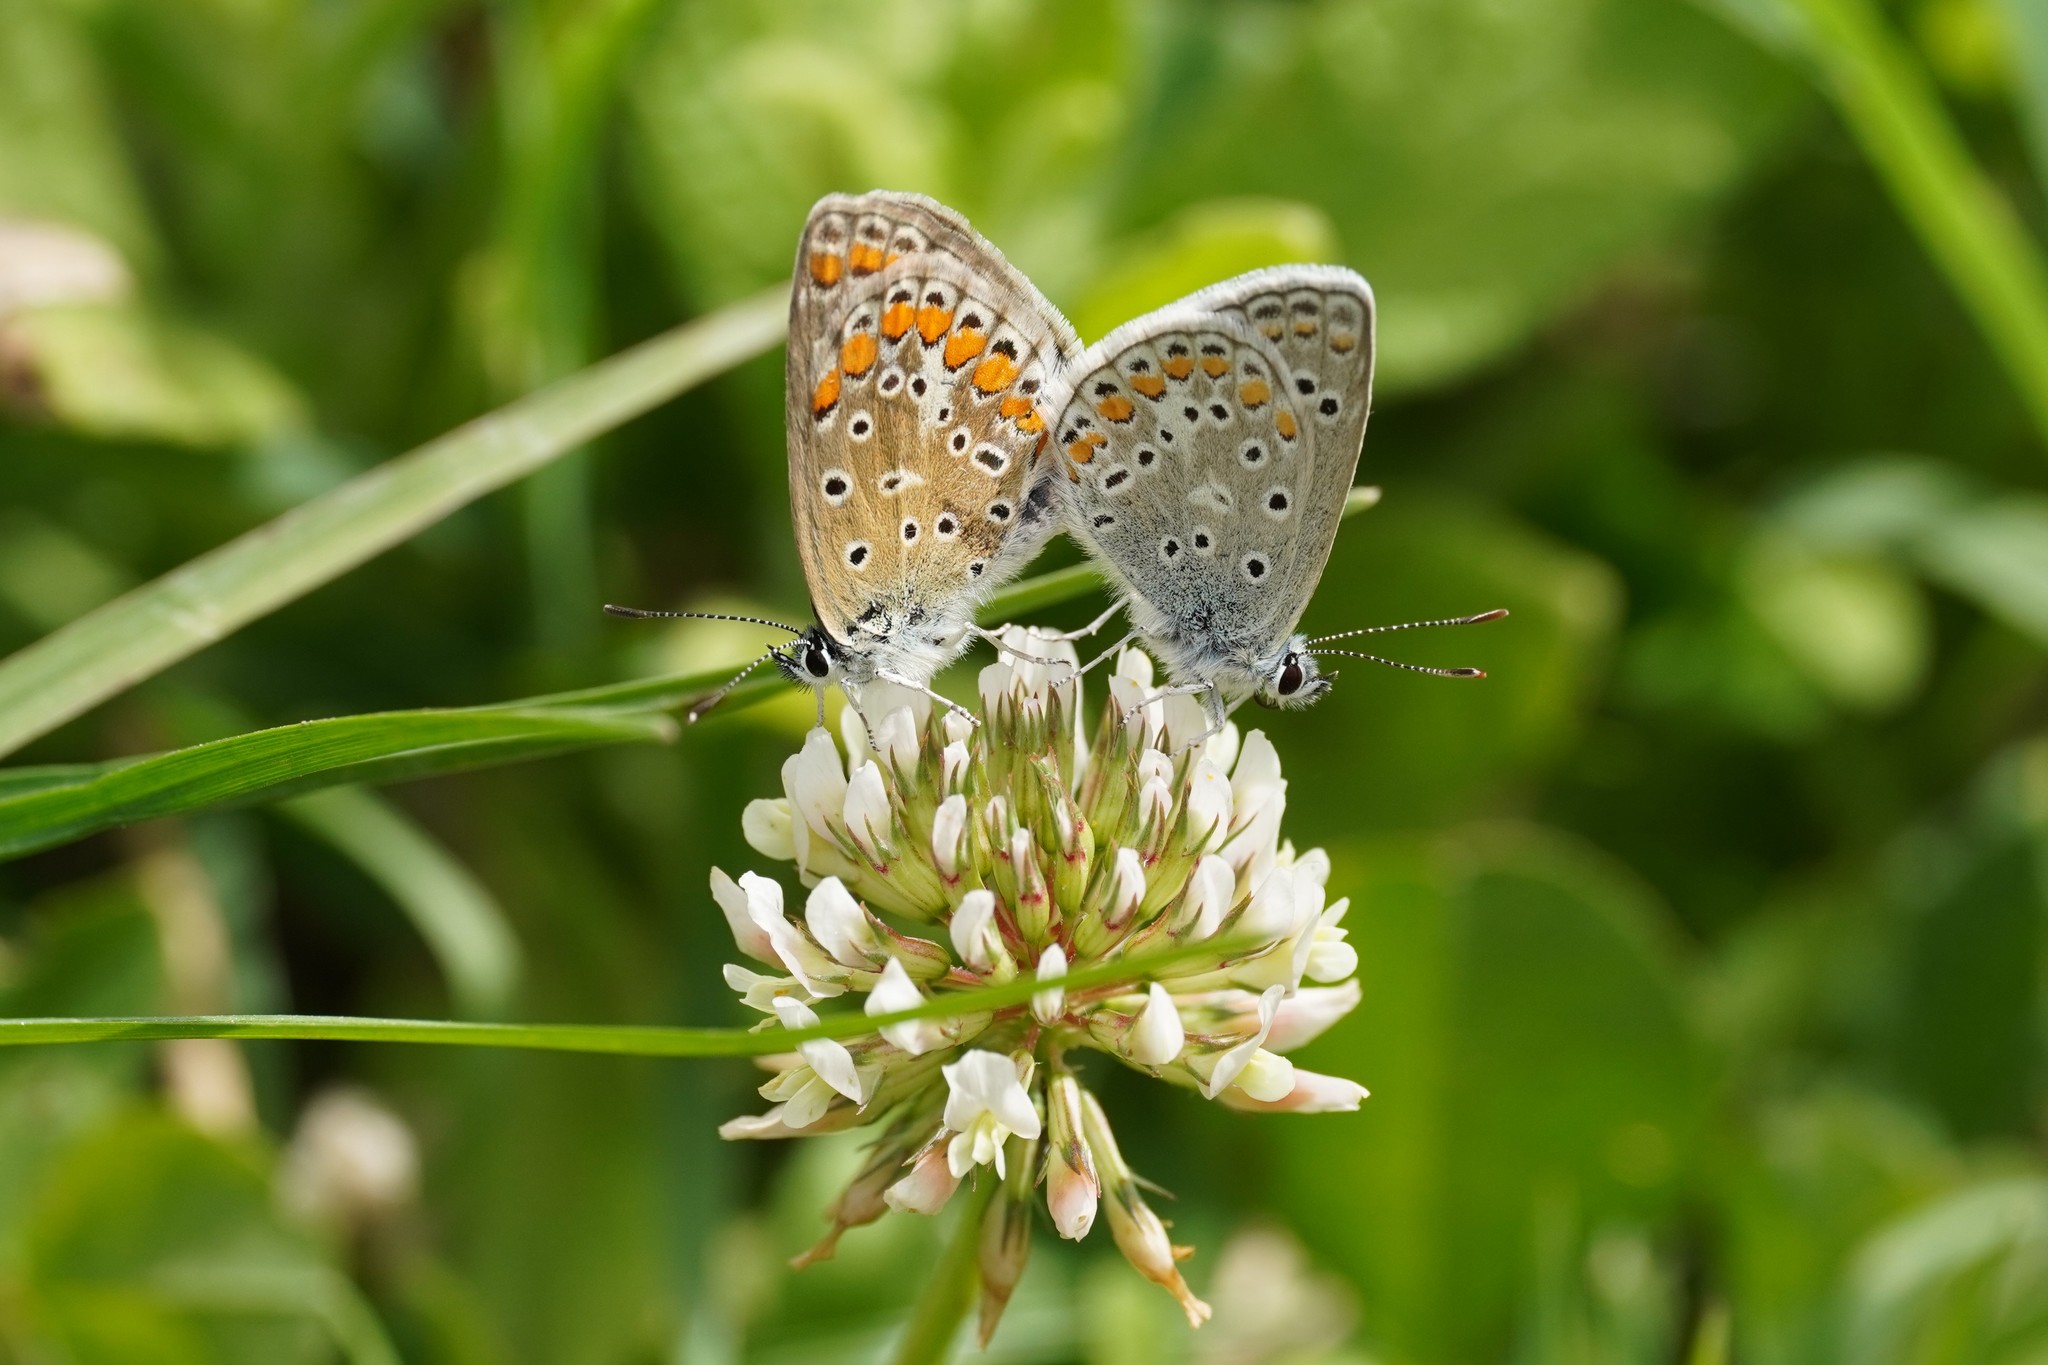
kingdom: Animalia
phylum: Arthropoda
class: Insecta
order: Lepidoptera
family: Lycaenidae
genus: Polyommatus
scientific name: Polyommatus celina
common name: Austaut's blue
